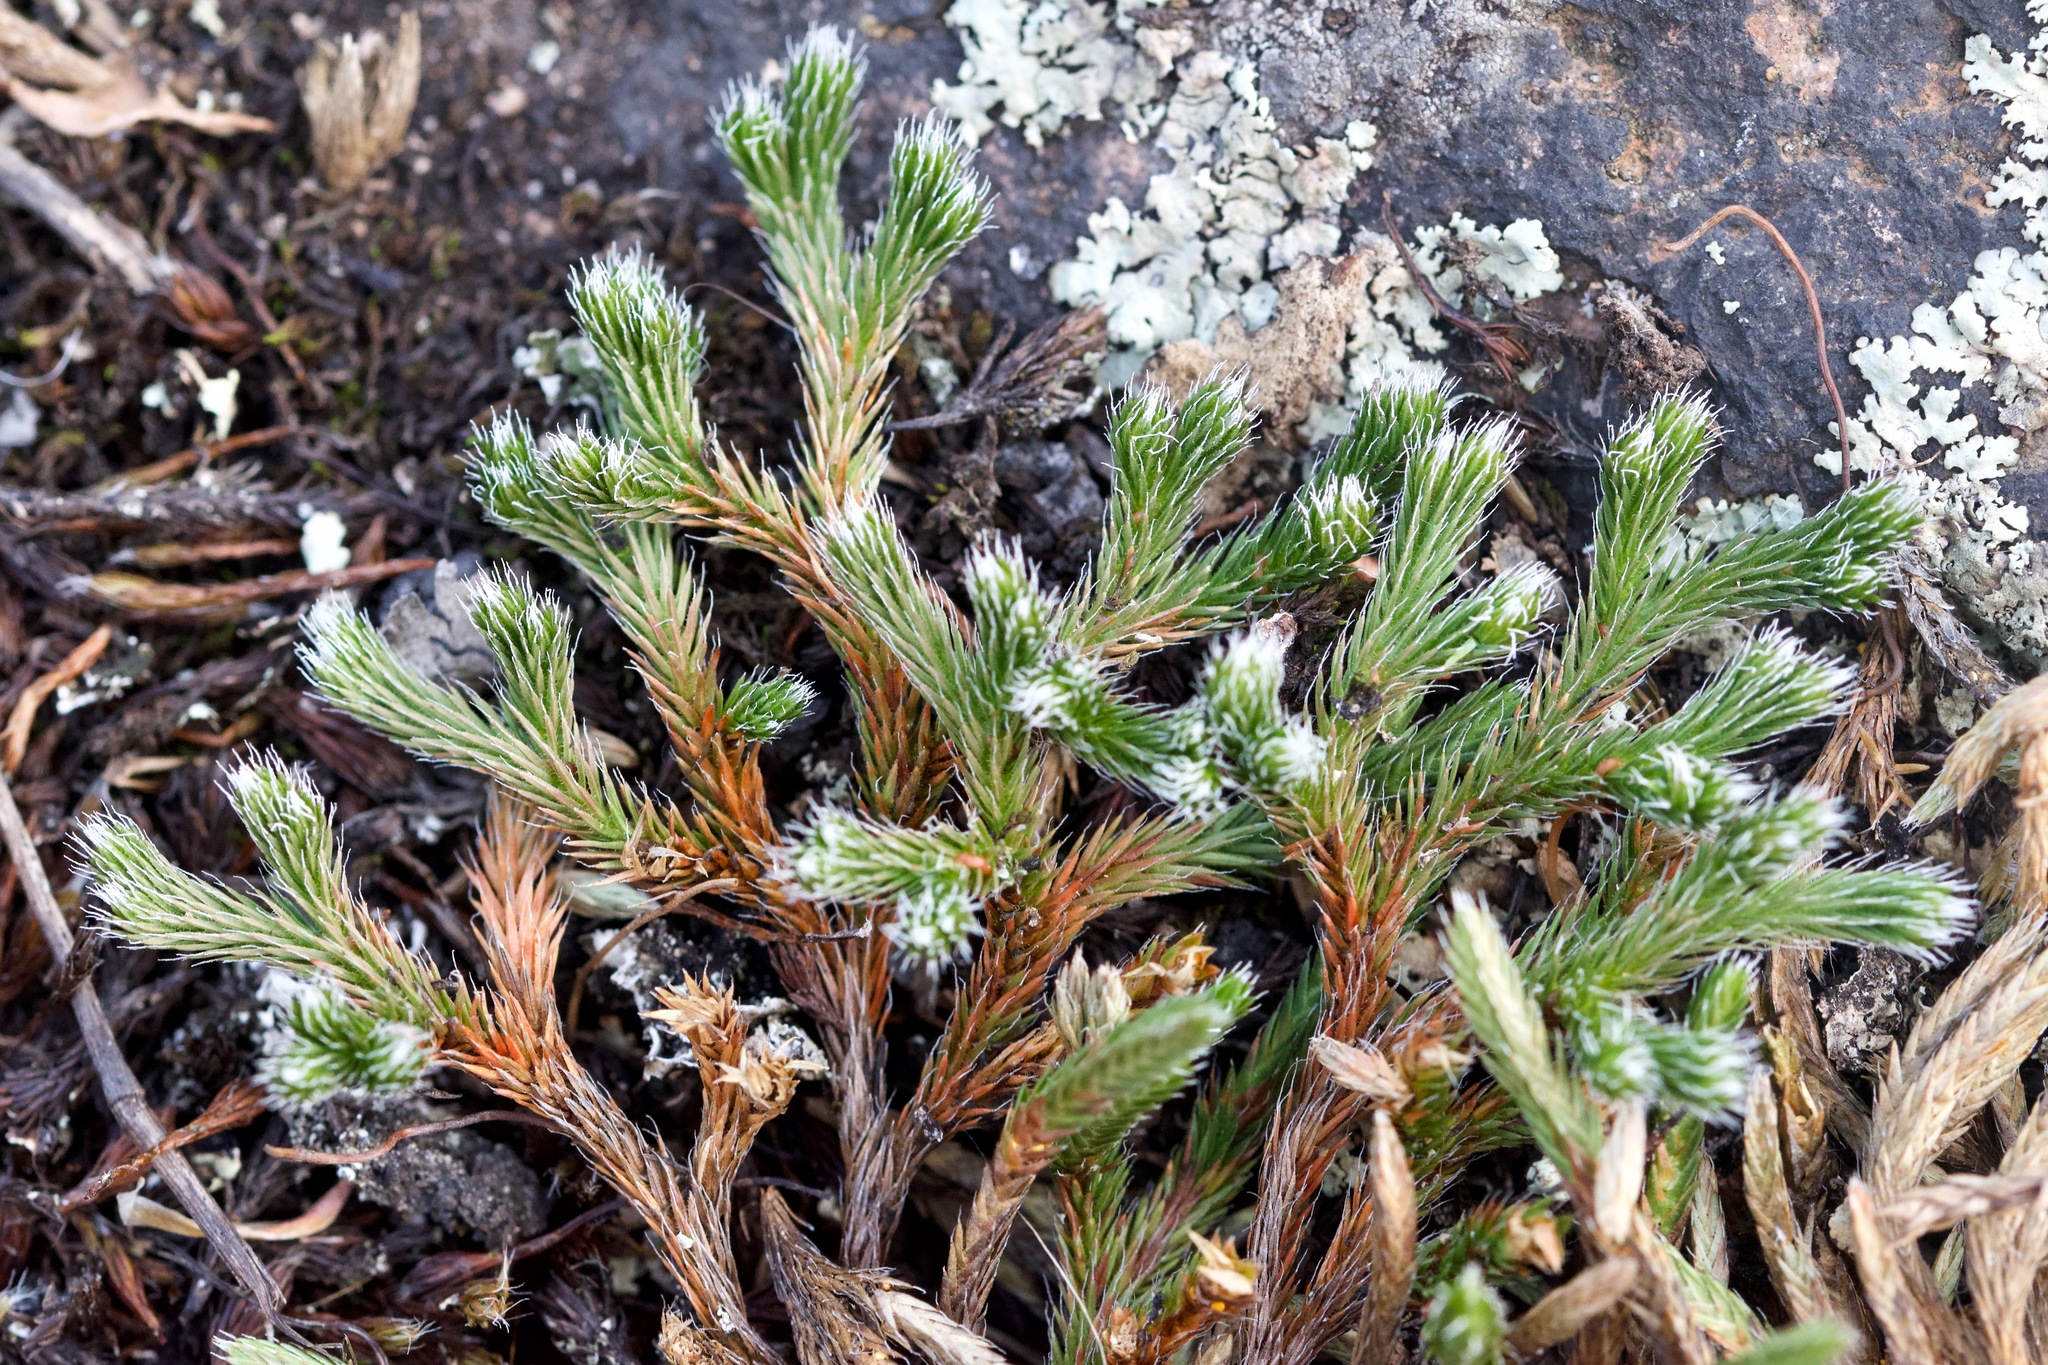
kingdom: Plantae
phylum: Tracheophyta
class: Lycopodiopsida
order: Selaginellales
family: Selaginellaceae
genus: Selaginella
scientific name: Selaginella rupestris
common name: Dwarf spikemoss
